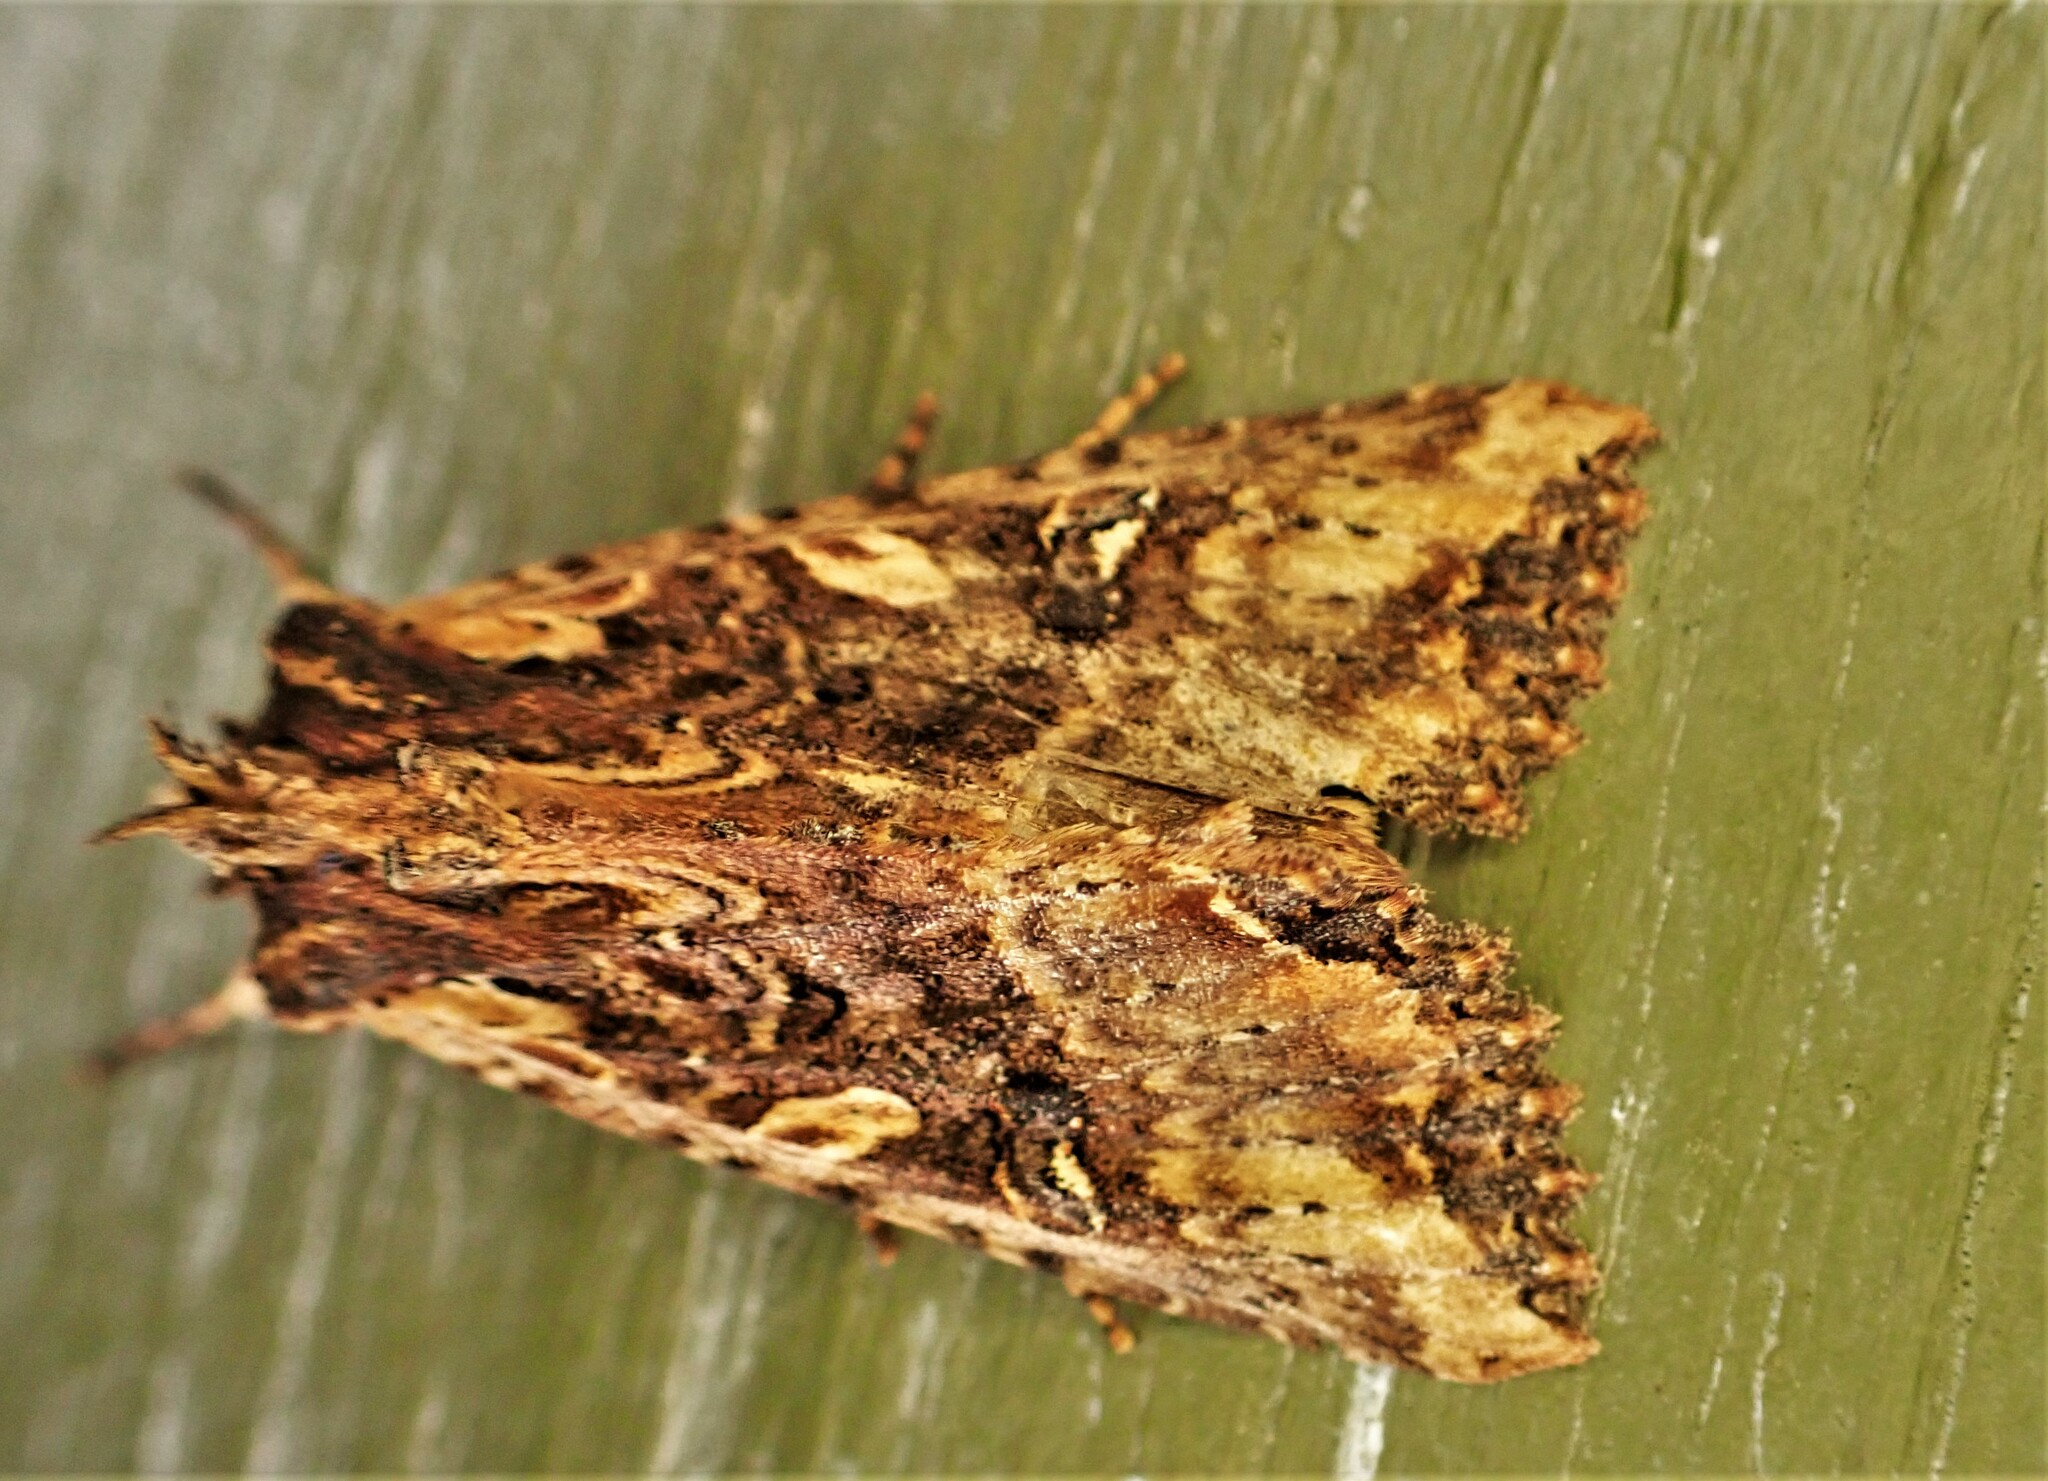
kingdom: Animalia
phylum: Arthropoda
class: Insecta
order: Lepidoptera
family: Noctuidae
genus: Meterana
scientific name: Meterana stipata
